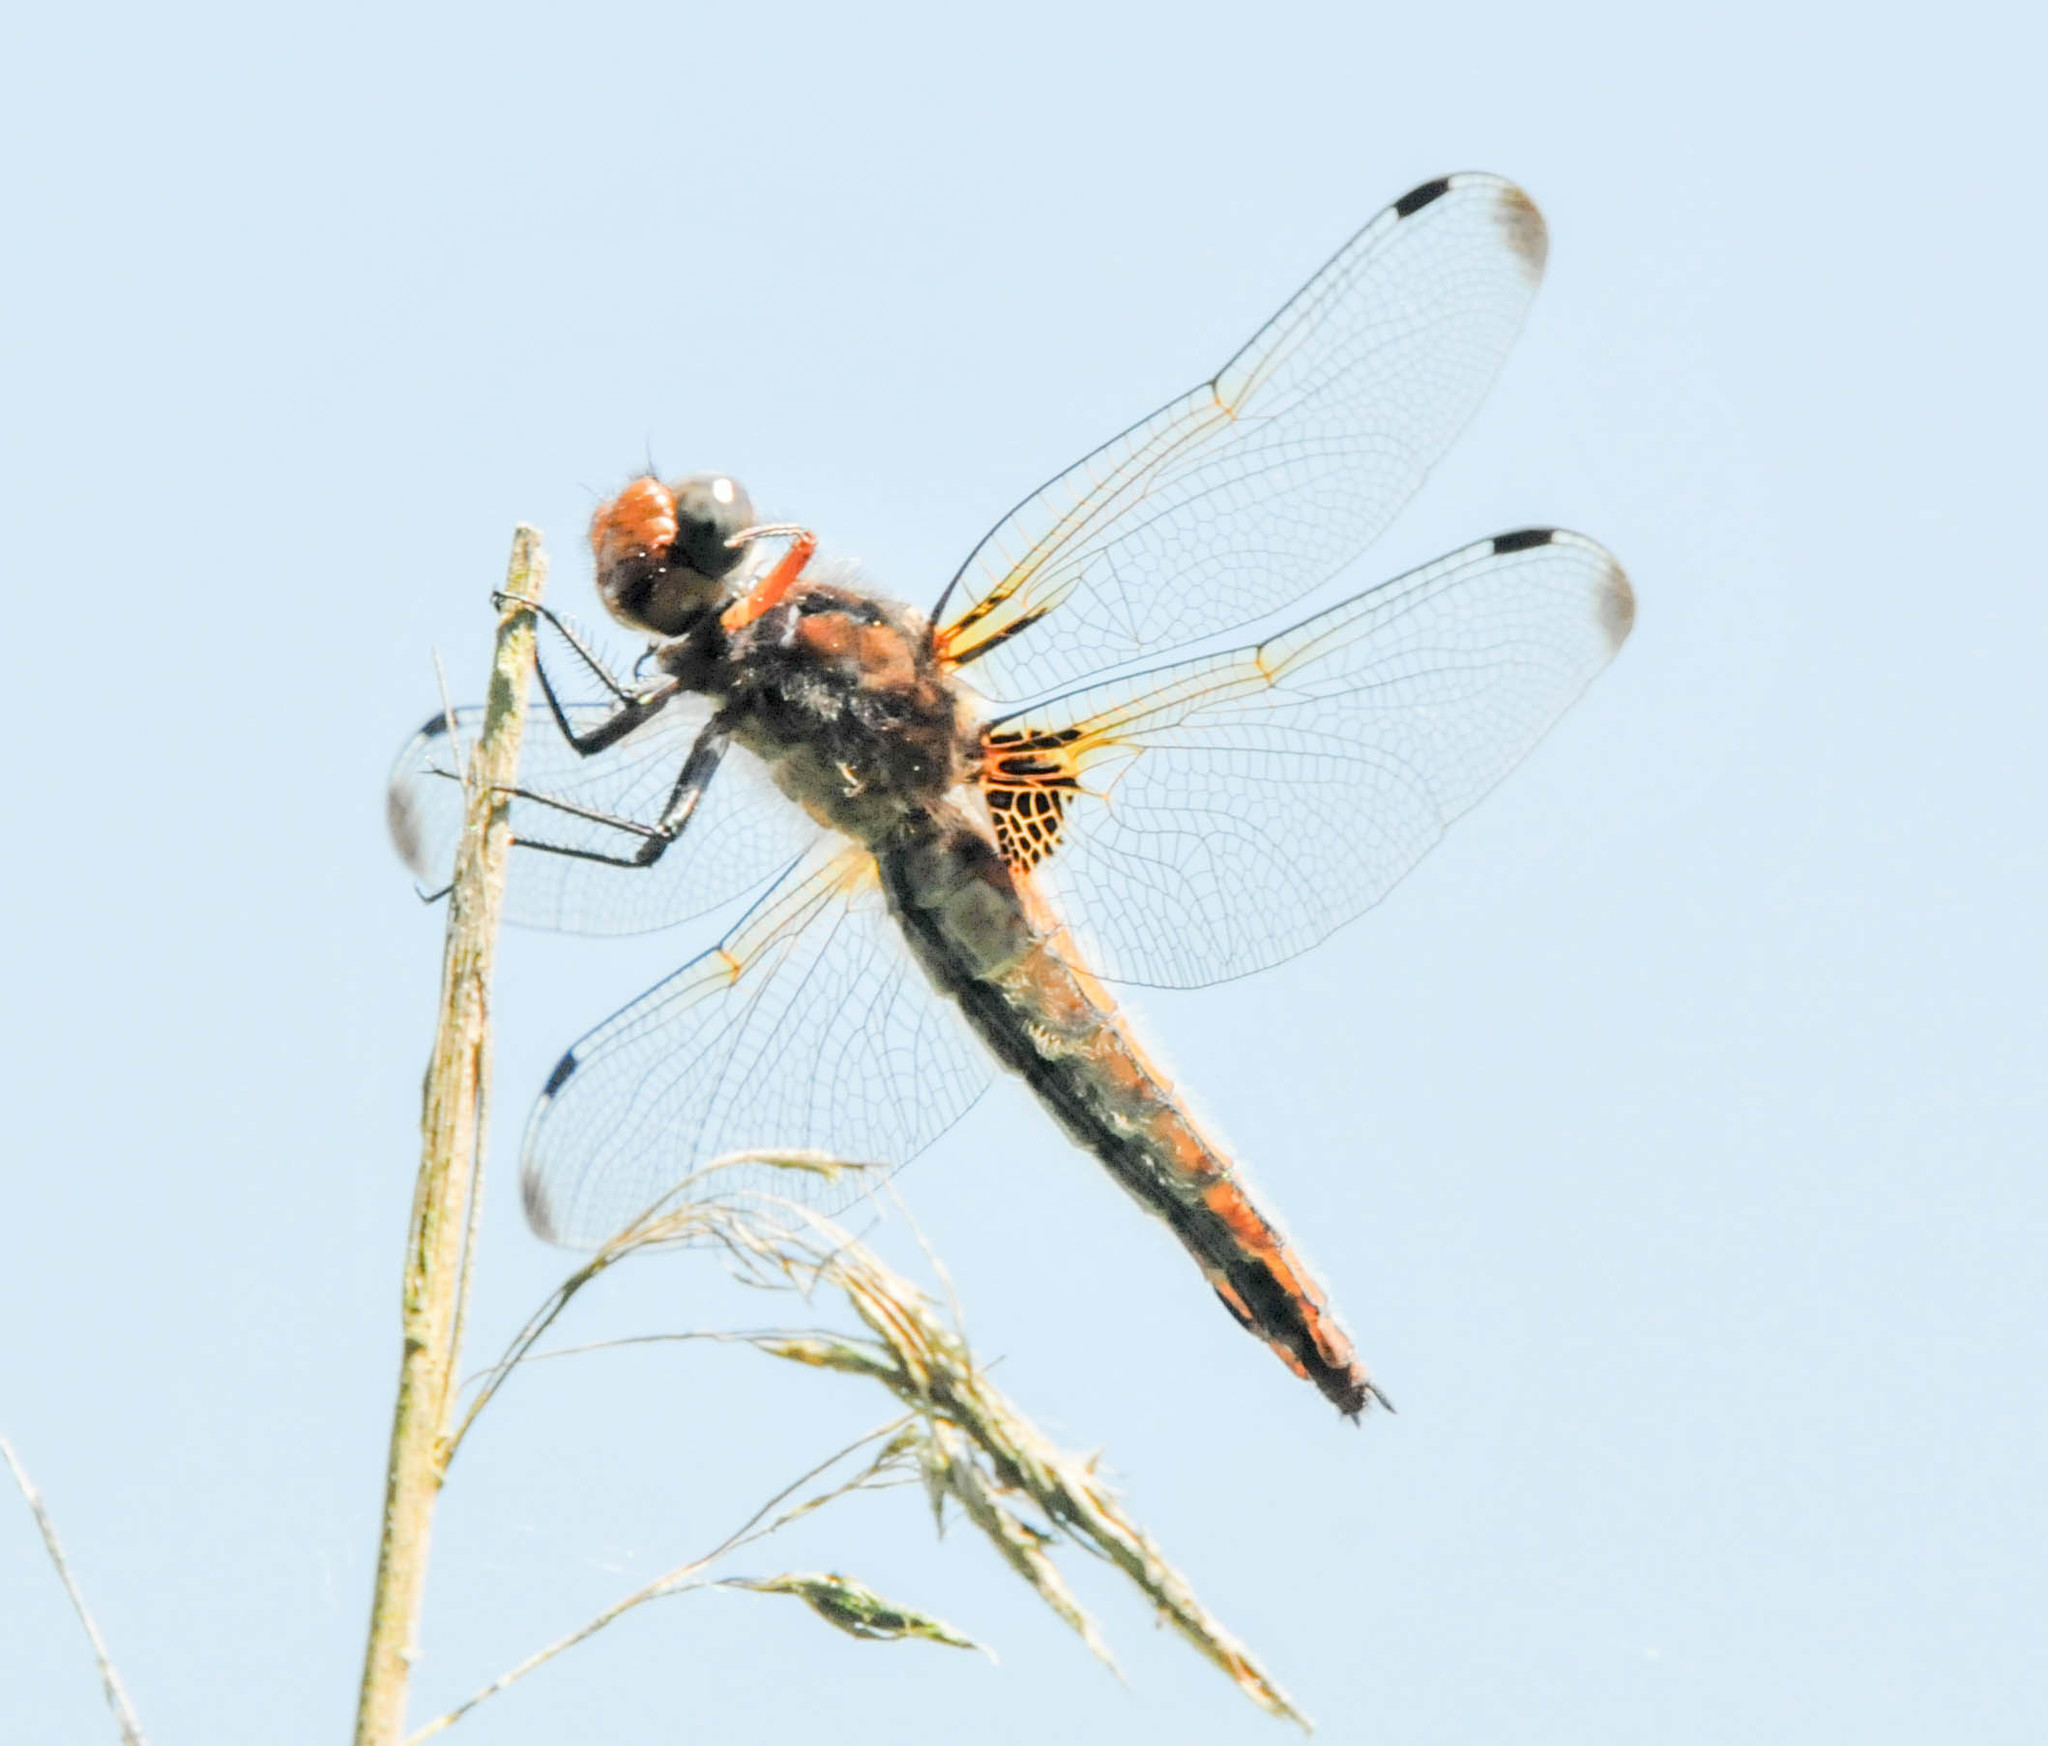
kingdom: Animalia
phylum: Arthropoda
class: Insecta
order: Odonata
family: Libellulidae
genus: Libellula
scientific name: Libellula fulva
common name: Blue chaser
